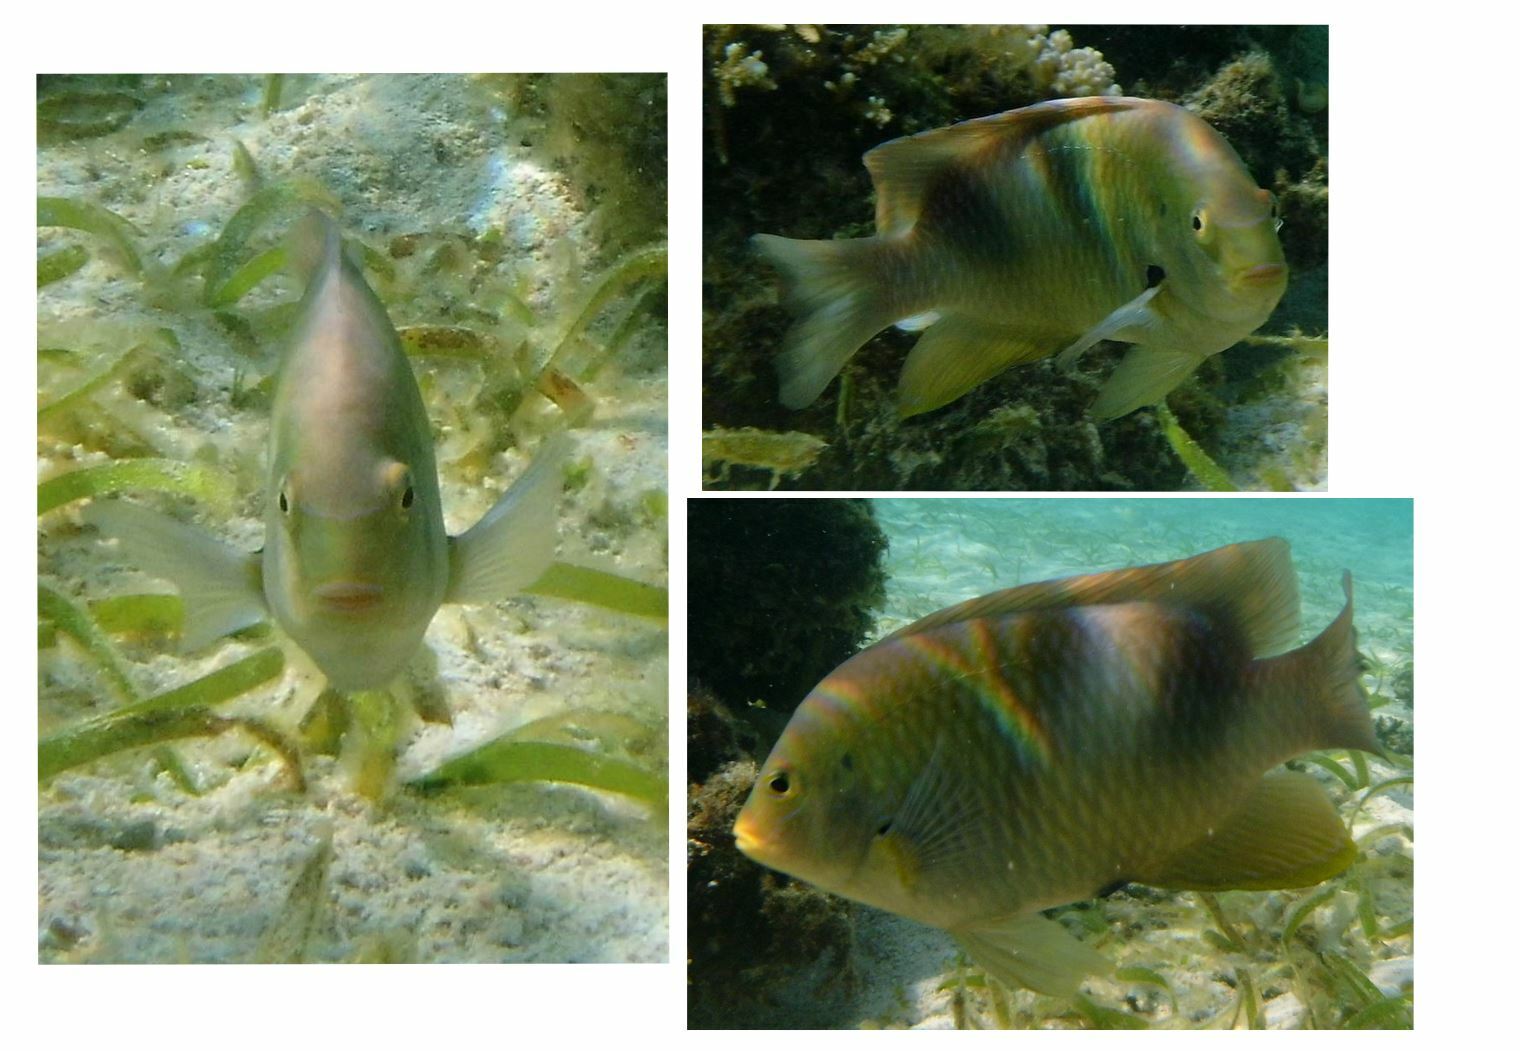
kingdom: Animalia
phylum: Chordata
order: Perciformes
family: Pomacentridae
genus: Dischistodus
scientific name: Dischistodus prosopotaenia
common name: Honey-head damsel
